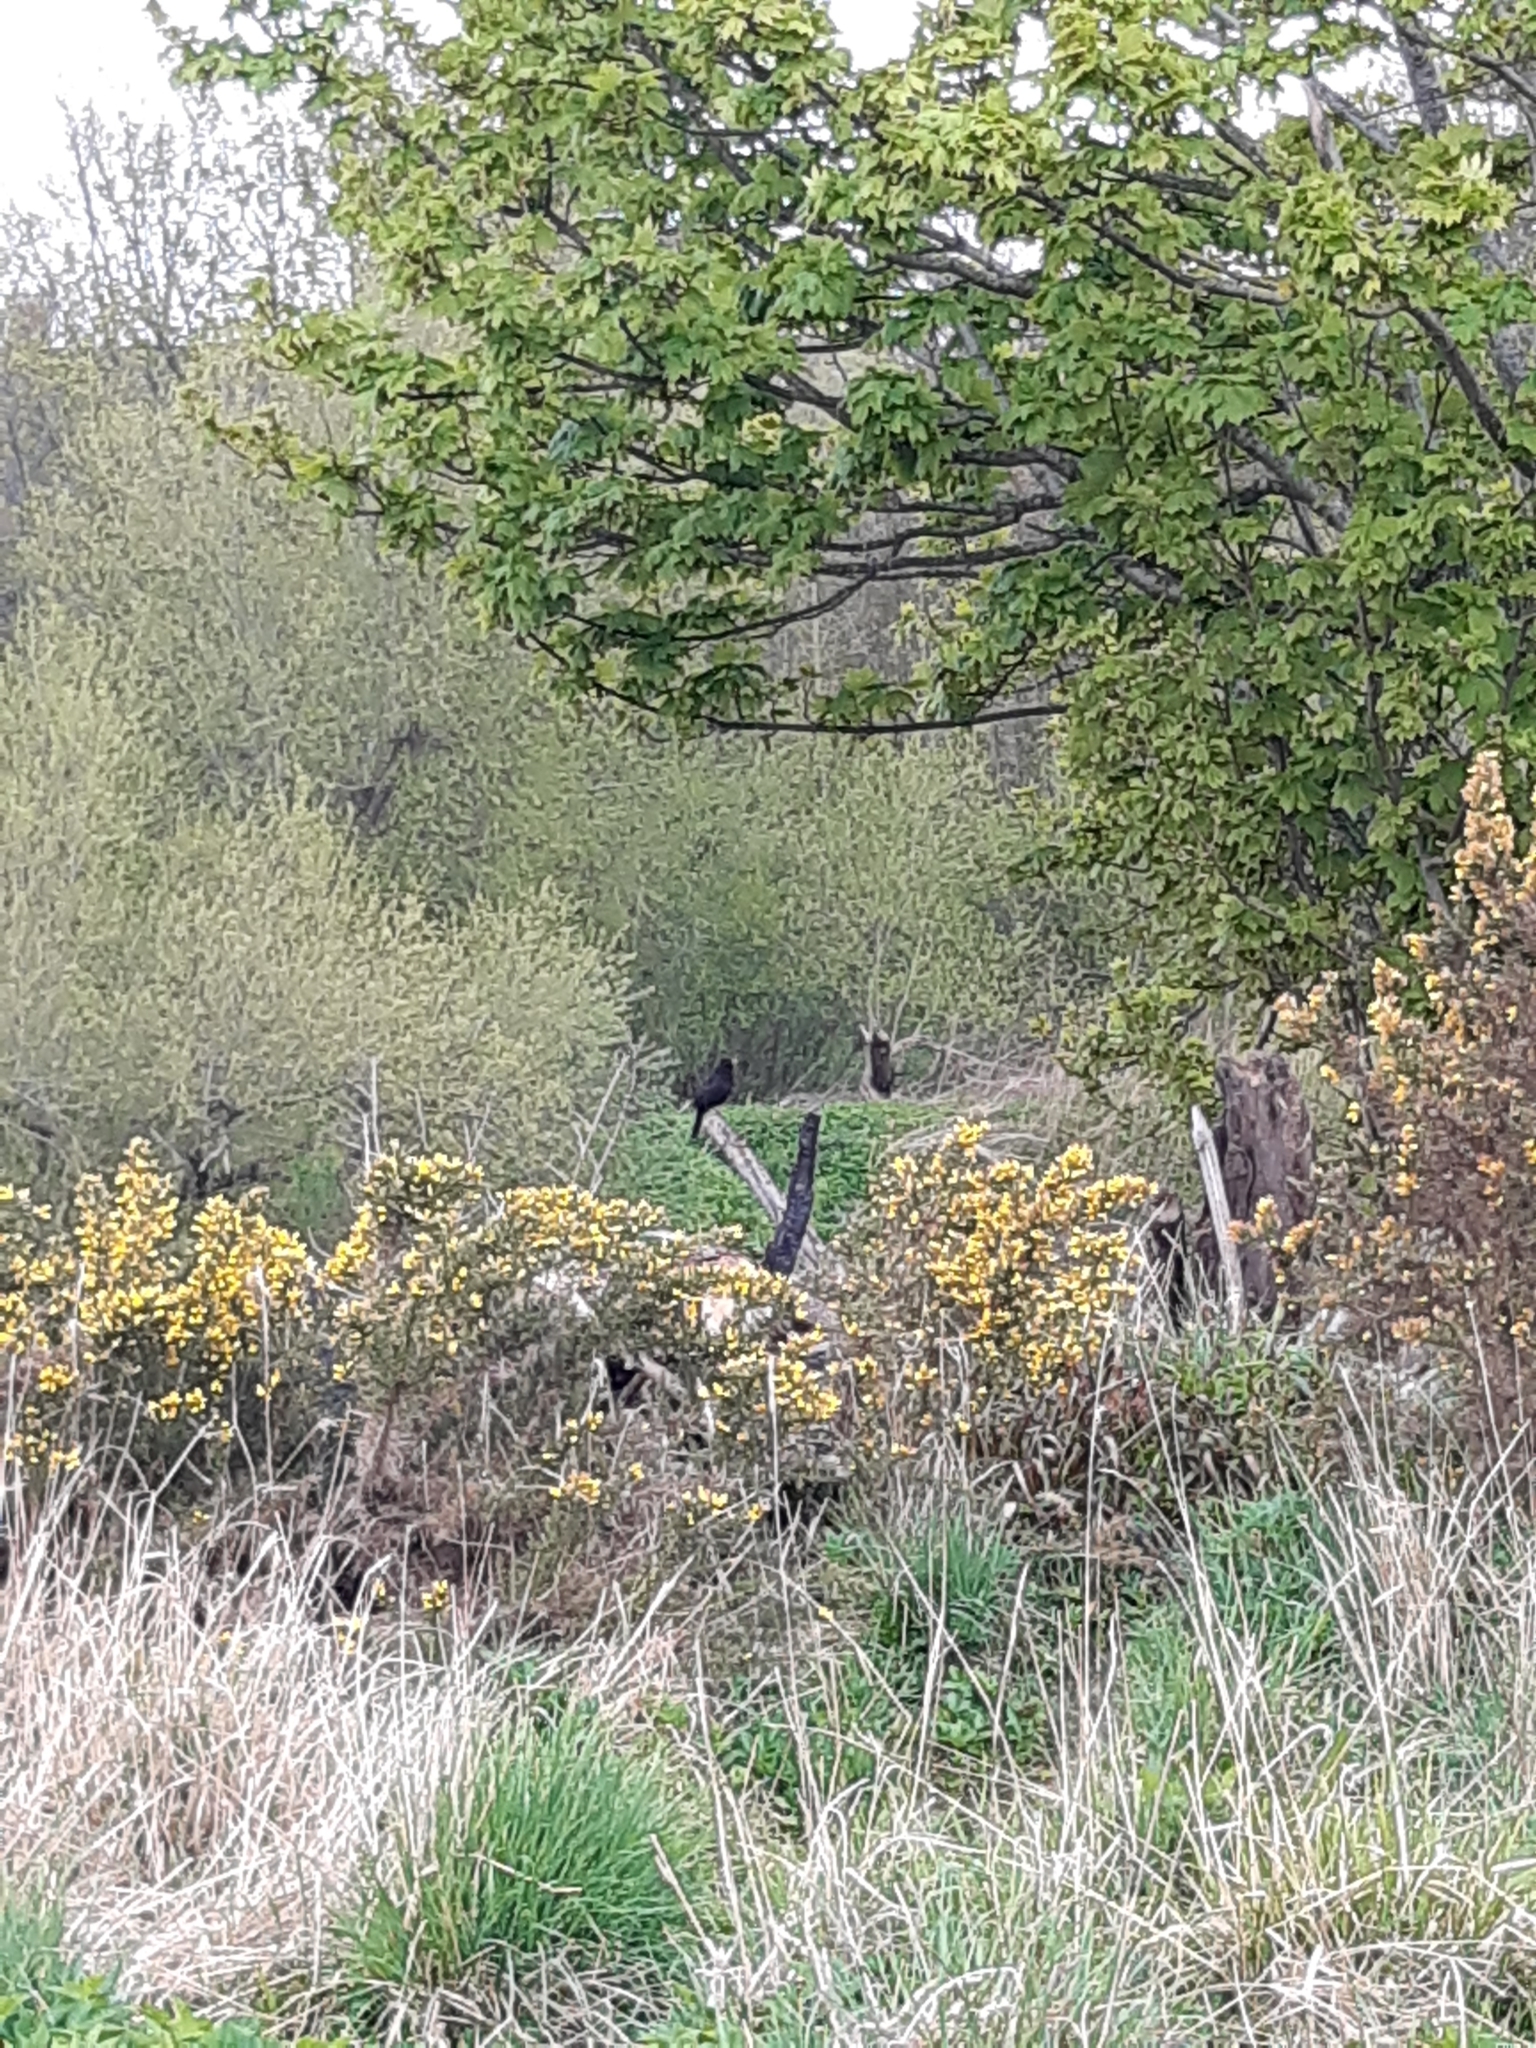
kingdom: Animalia
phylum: Chordata
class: Aves
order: Passeriformes
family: Turdidae
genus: Turdus
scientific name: Turdus merula
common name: Common blackbird
